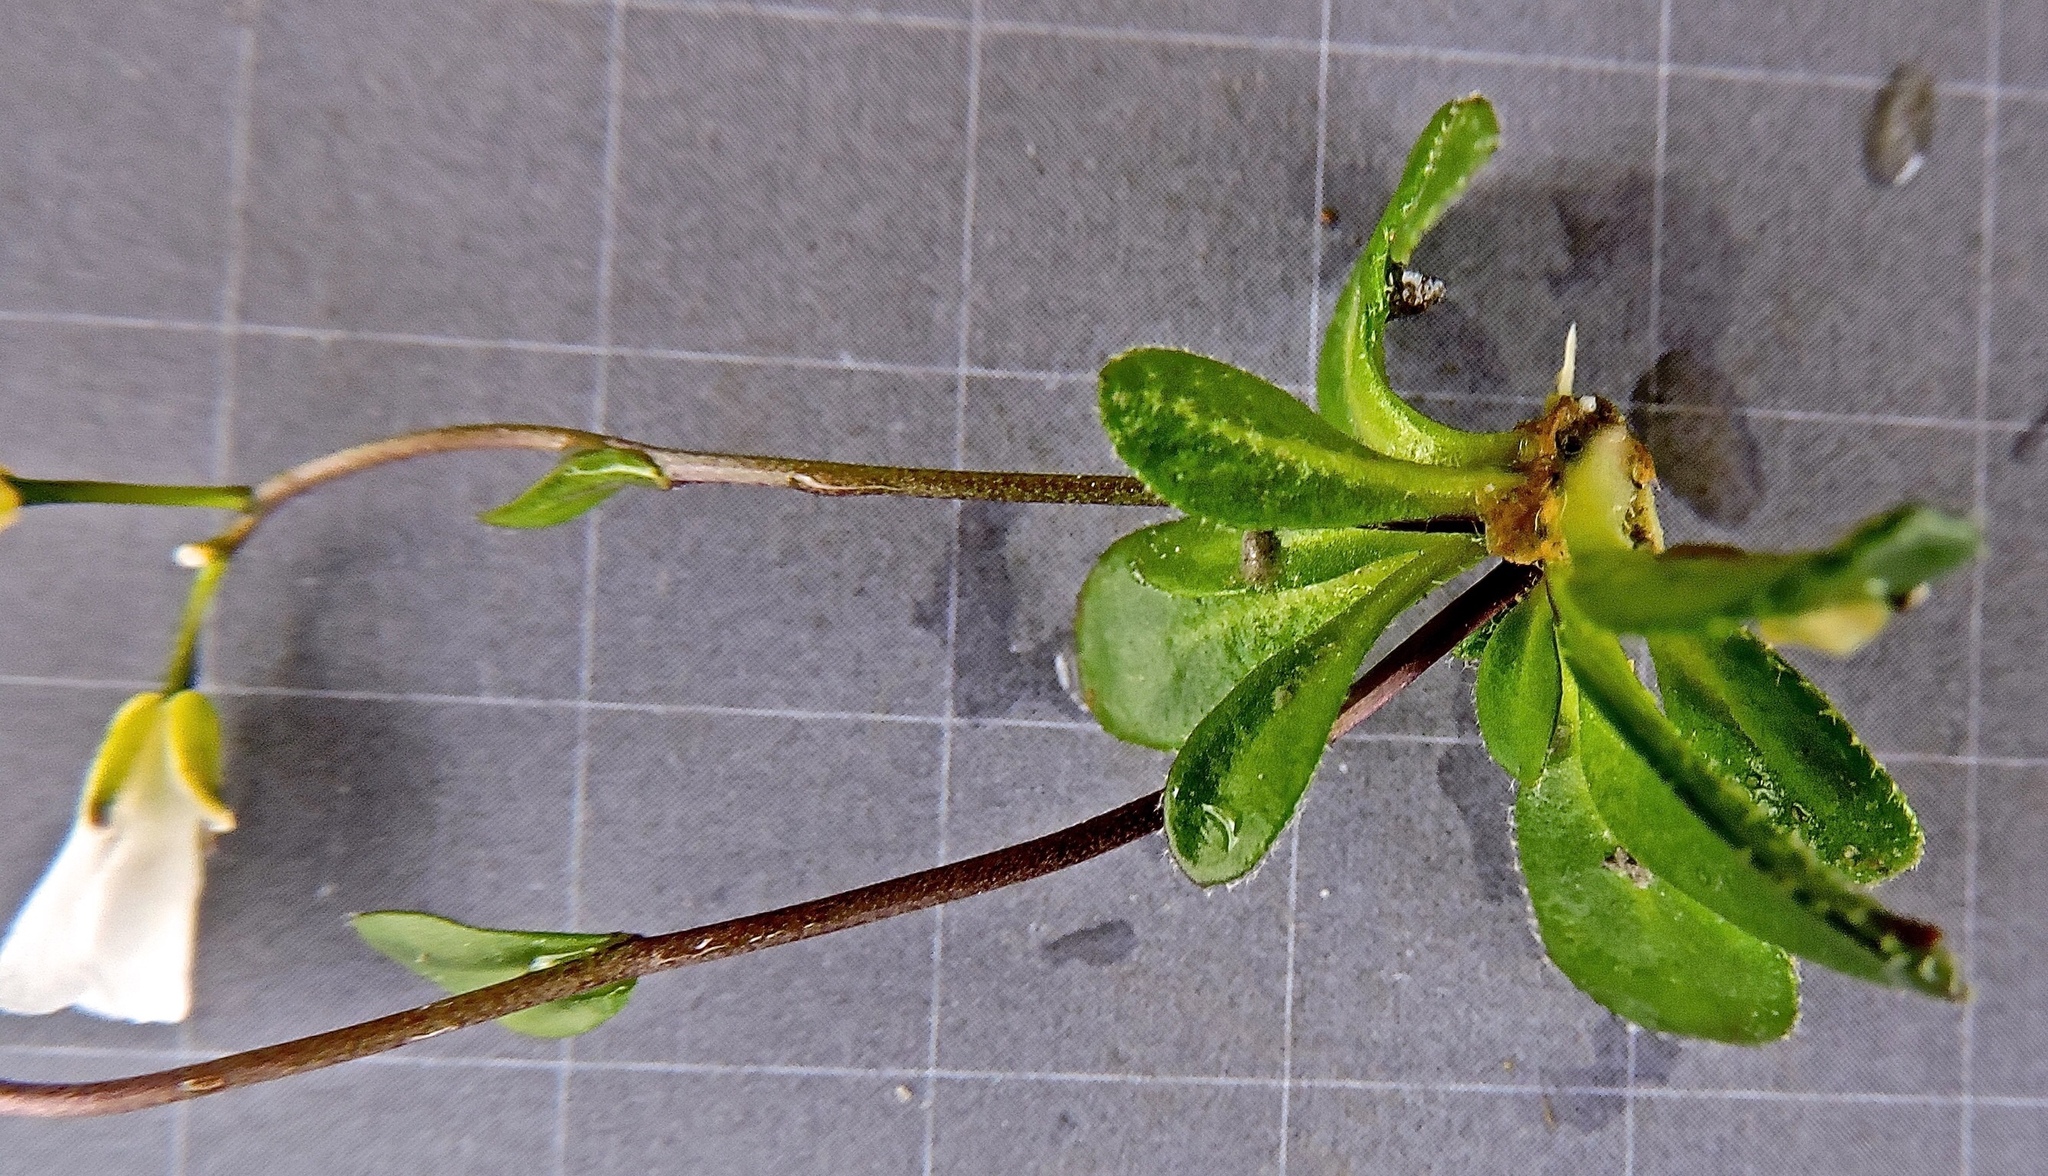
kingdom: Plantae
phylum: Tracheophyta
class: Magnoliopsida
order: Brassicales
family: Brassicaceae
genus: Arabis
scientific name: Arabis stellulata
